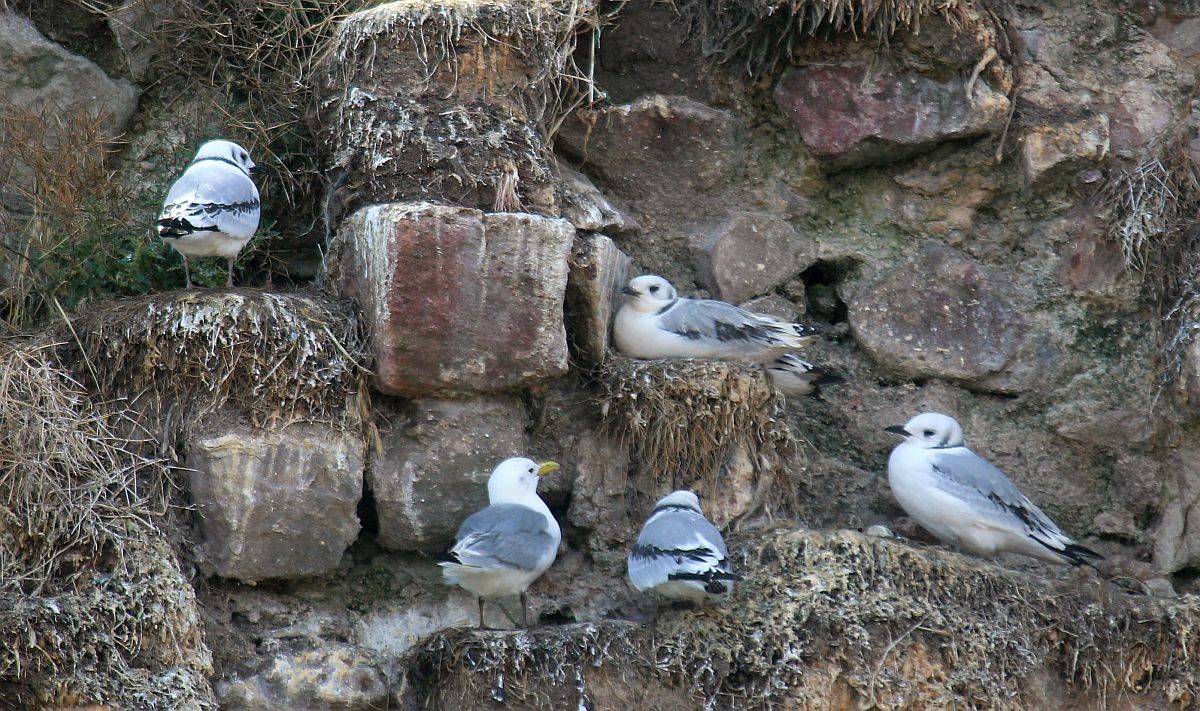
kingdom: Animalia
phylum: Chordata
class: Aves
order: Charadriiformes
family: Laridae
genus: Rissa
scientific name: Rissa tridactyla
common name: Black-legged kittiwake
